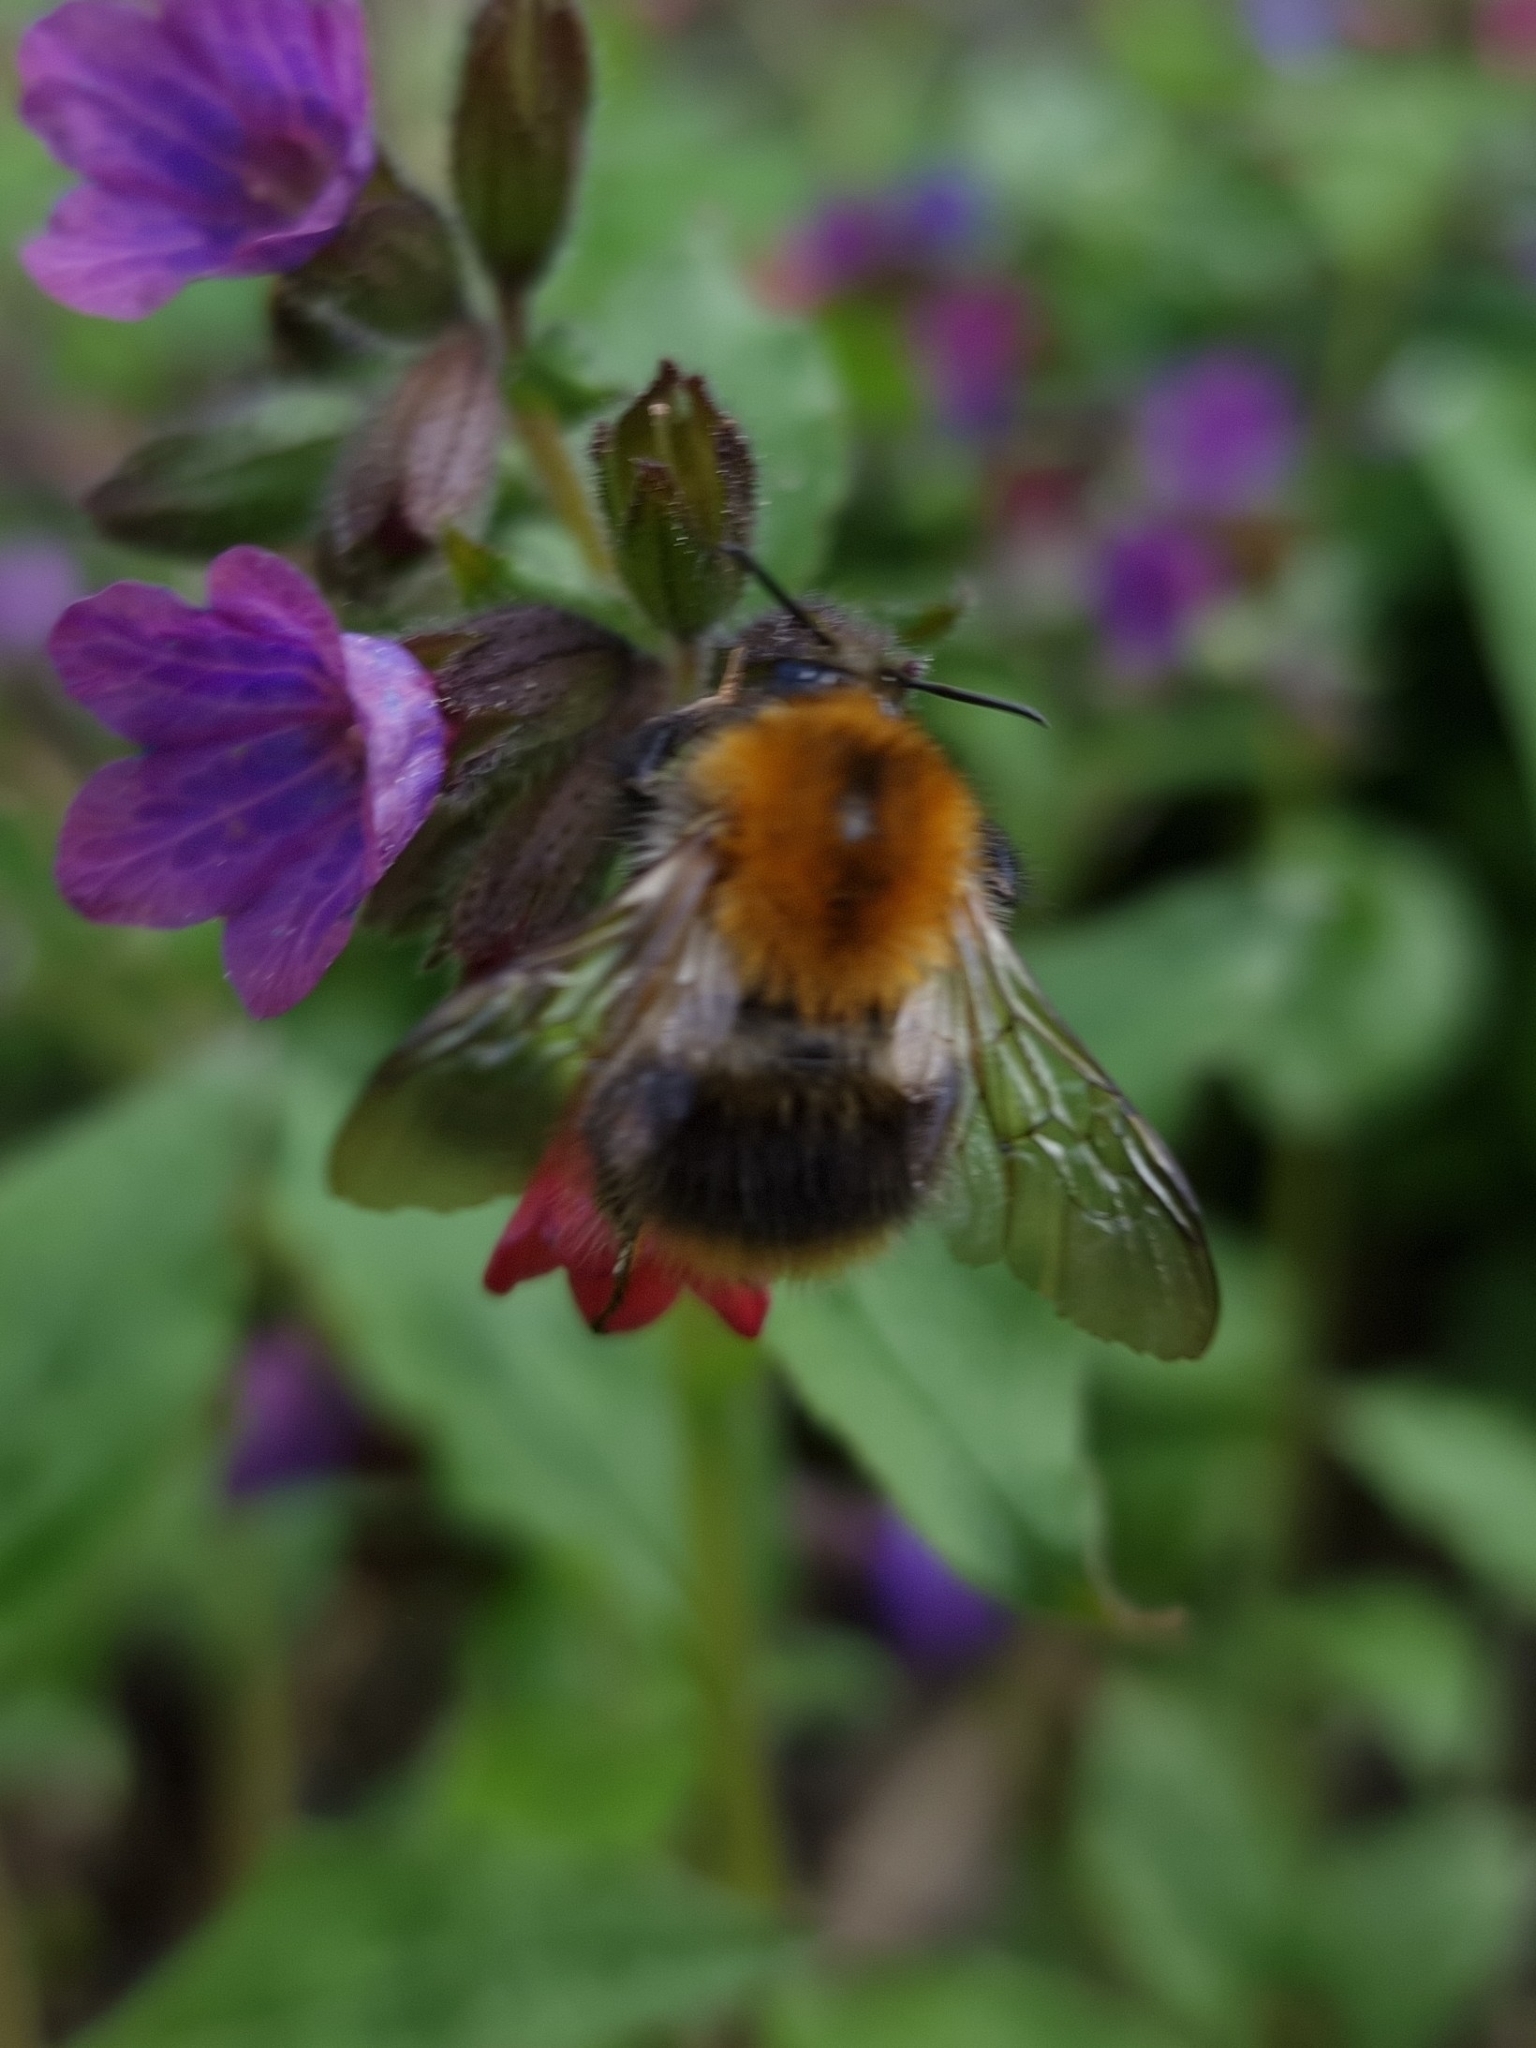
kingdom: Animalia
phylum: Arthropoda
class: Insecta
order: Hymenoptera
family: Apidae
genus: Bombus
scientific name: Bombus pascuorum
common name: Common carder bee
